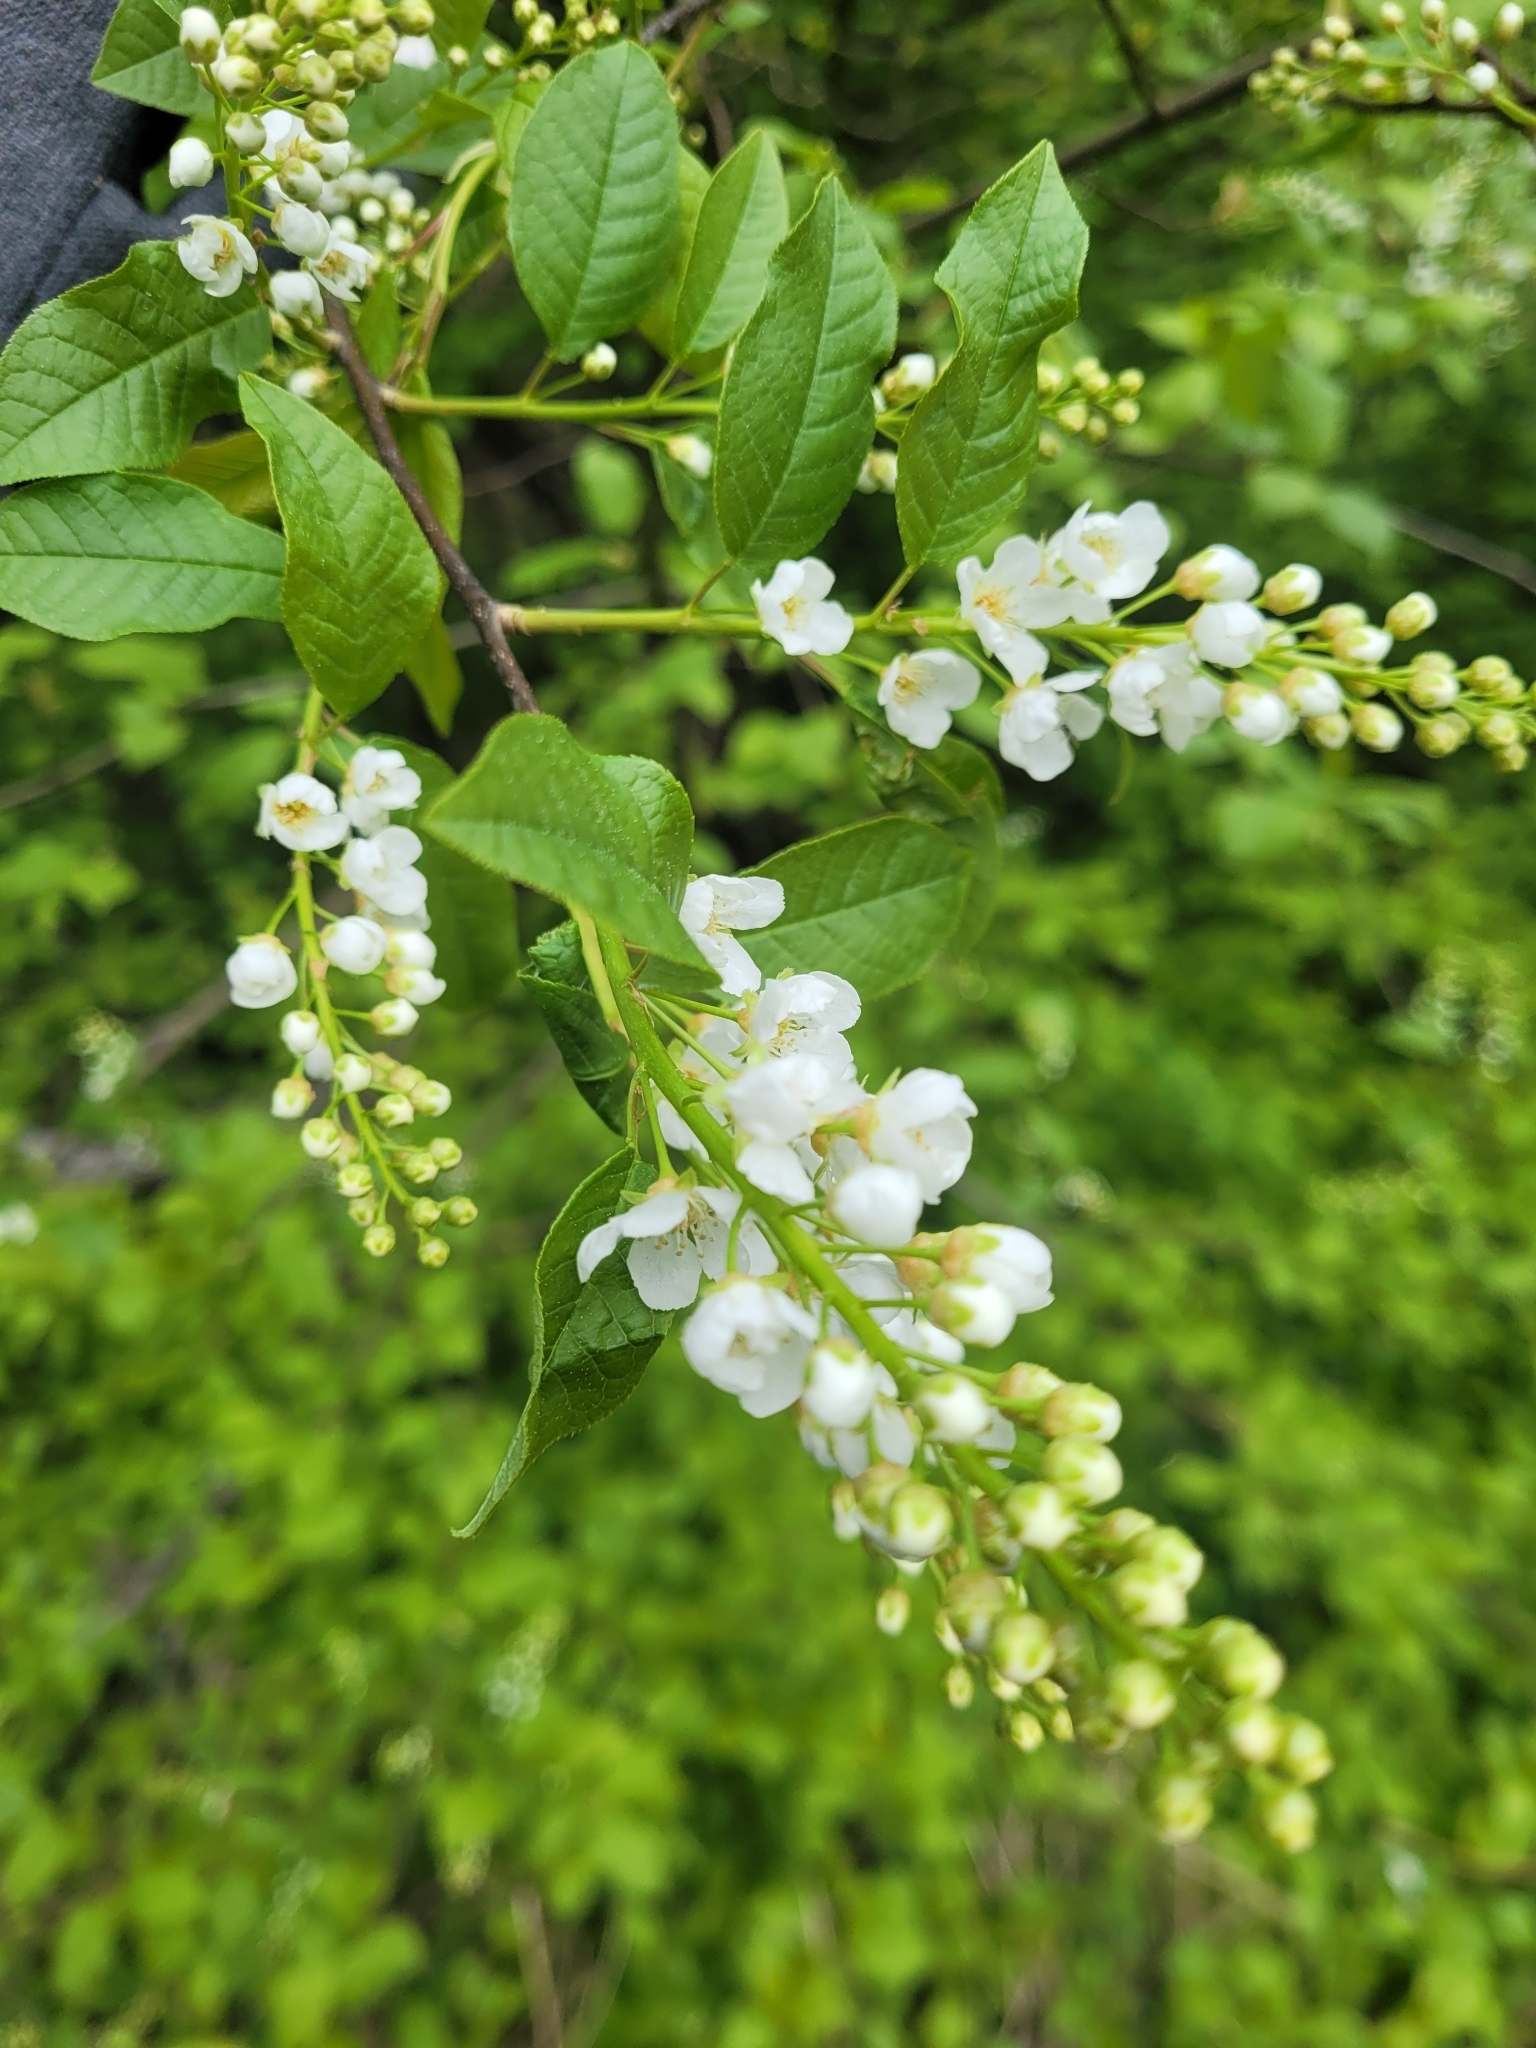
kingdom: Plantae
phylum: Tracheophyta
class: Magnoliopsida
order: Rosales
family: Rosaceae
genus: Prunus
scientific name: Prunus padus
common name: Bird cherry
